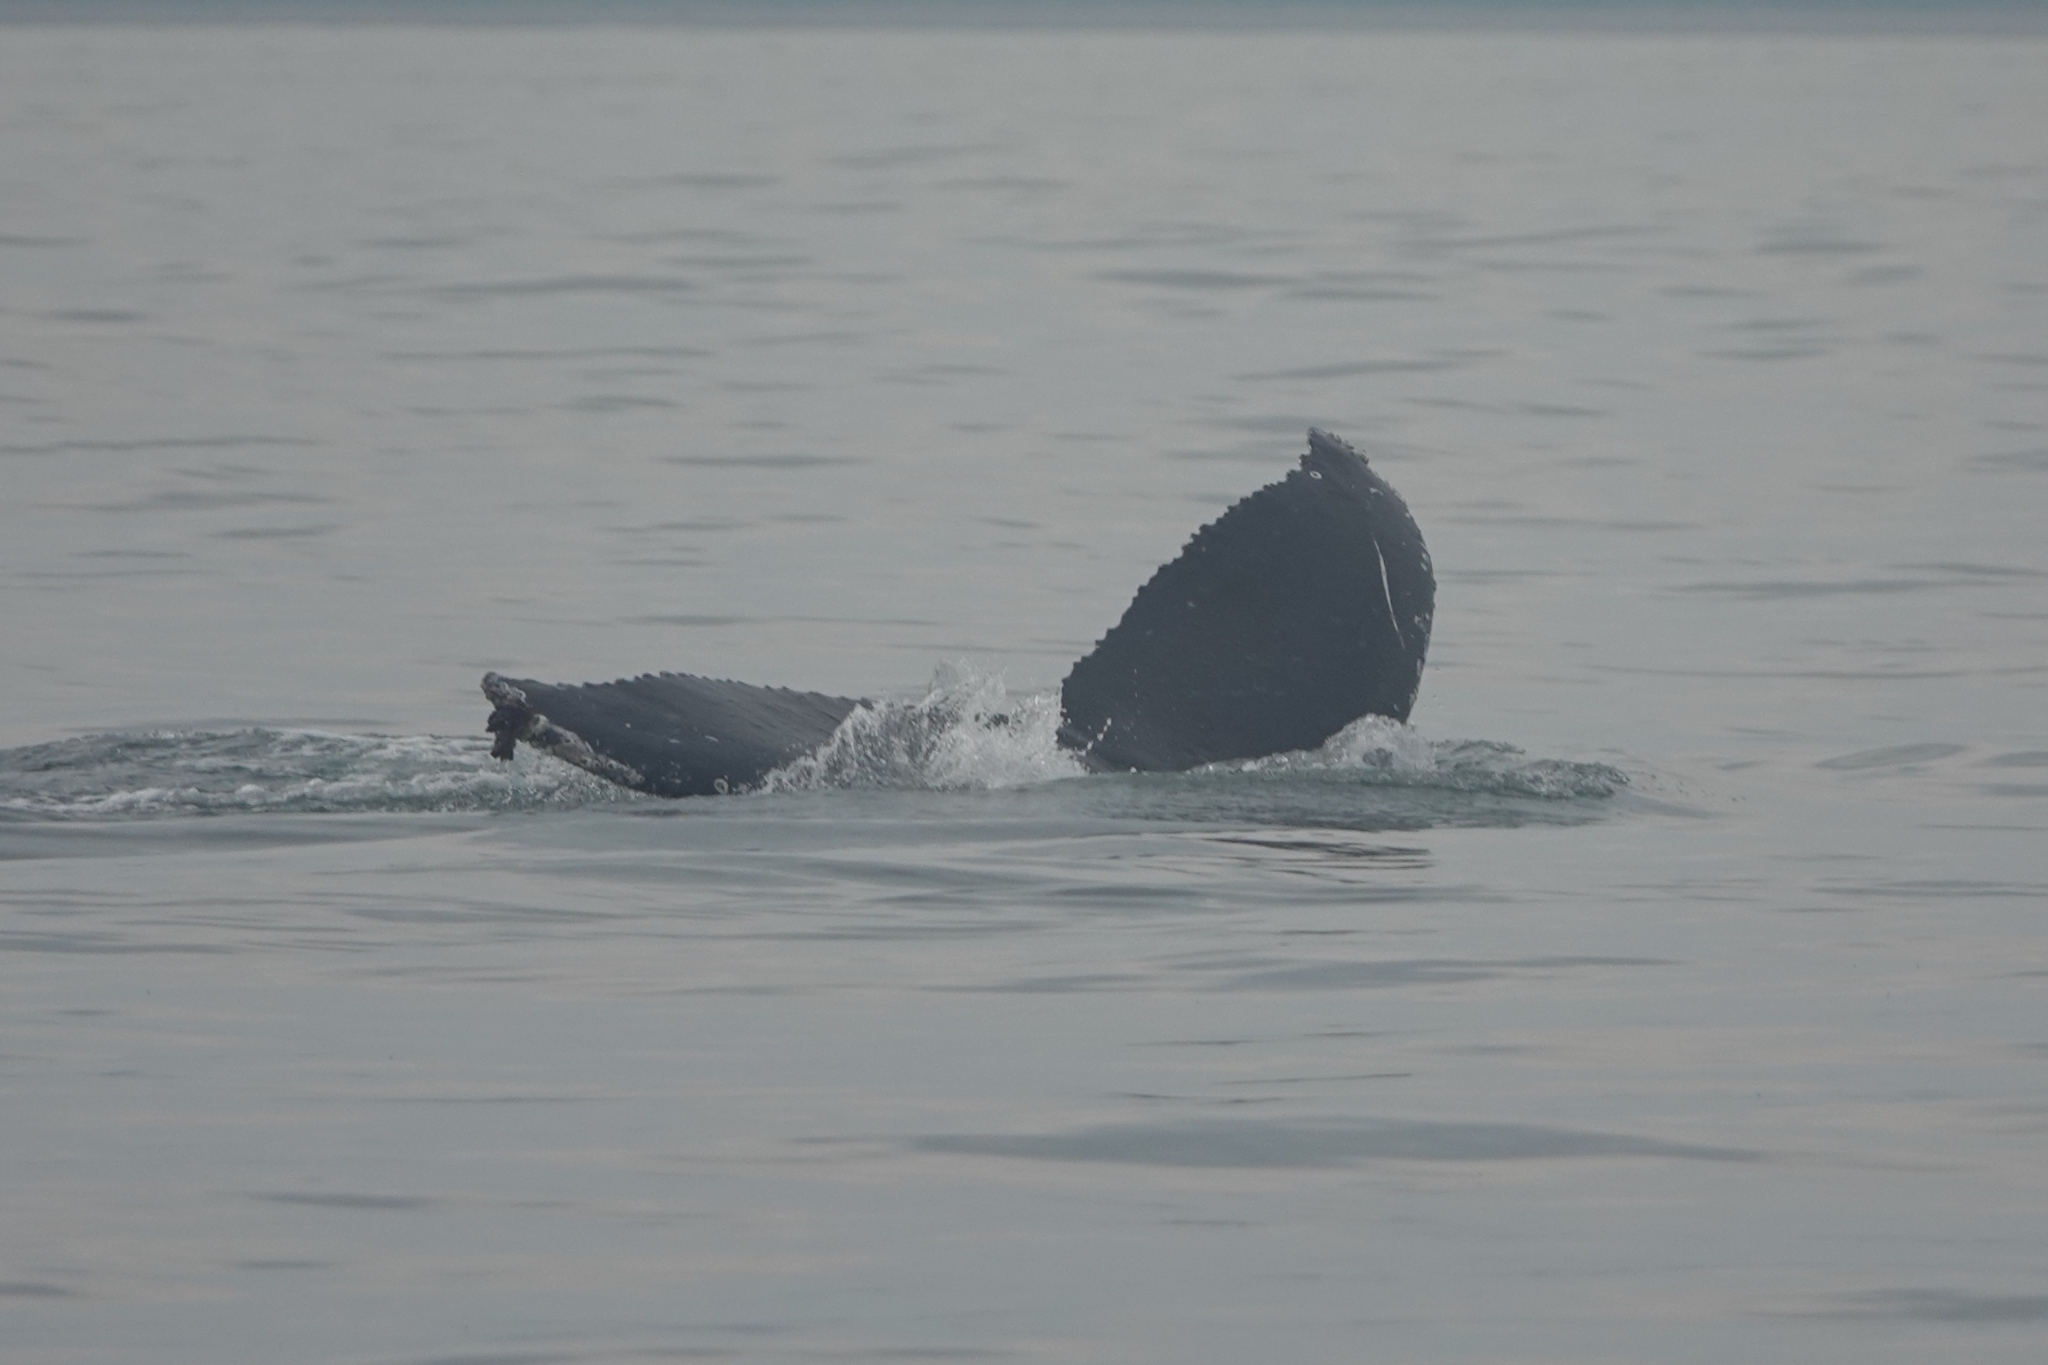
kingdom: Animalia
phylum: Chordata
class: Mammalia
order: Cetacea
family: Balaenopteridae
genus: Megaptera
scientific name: Megaptera novaeangliae
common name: Humpback whale
